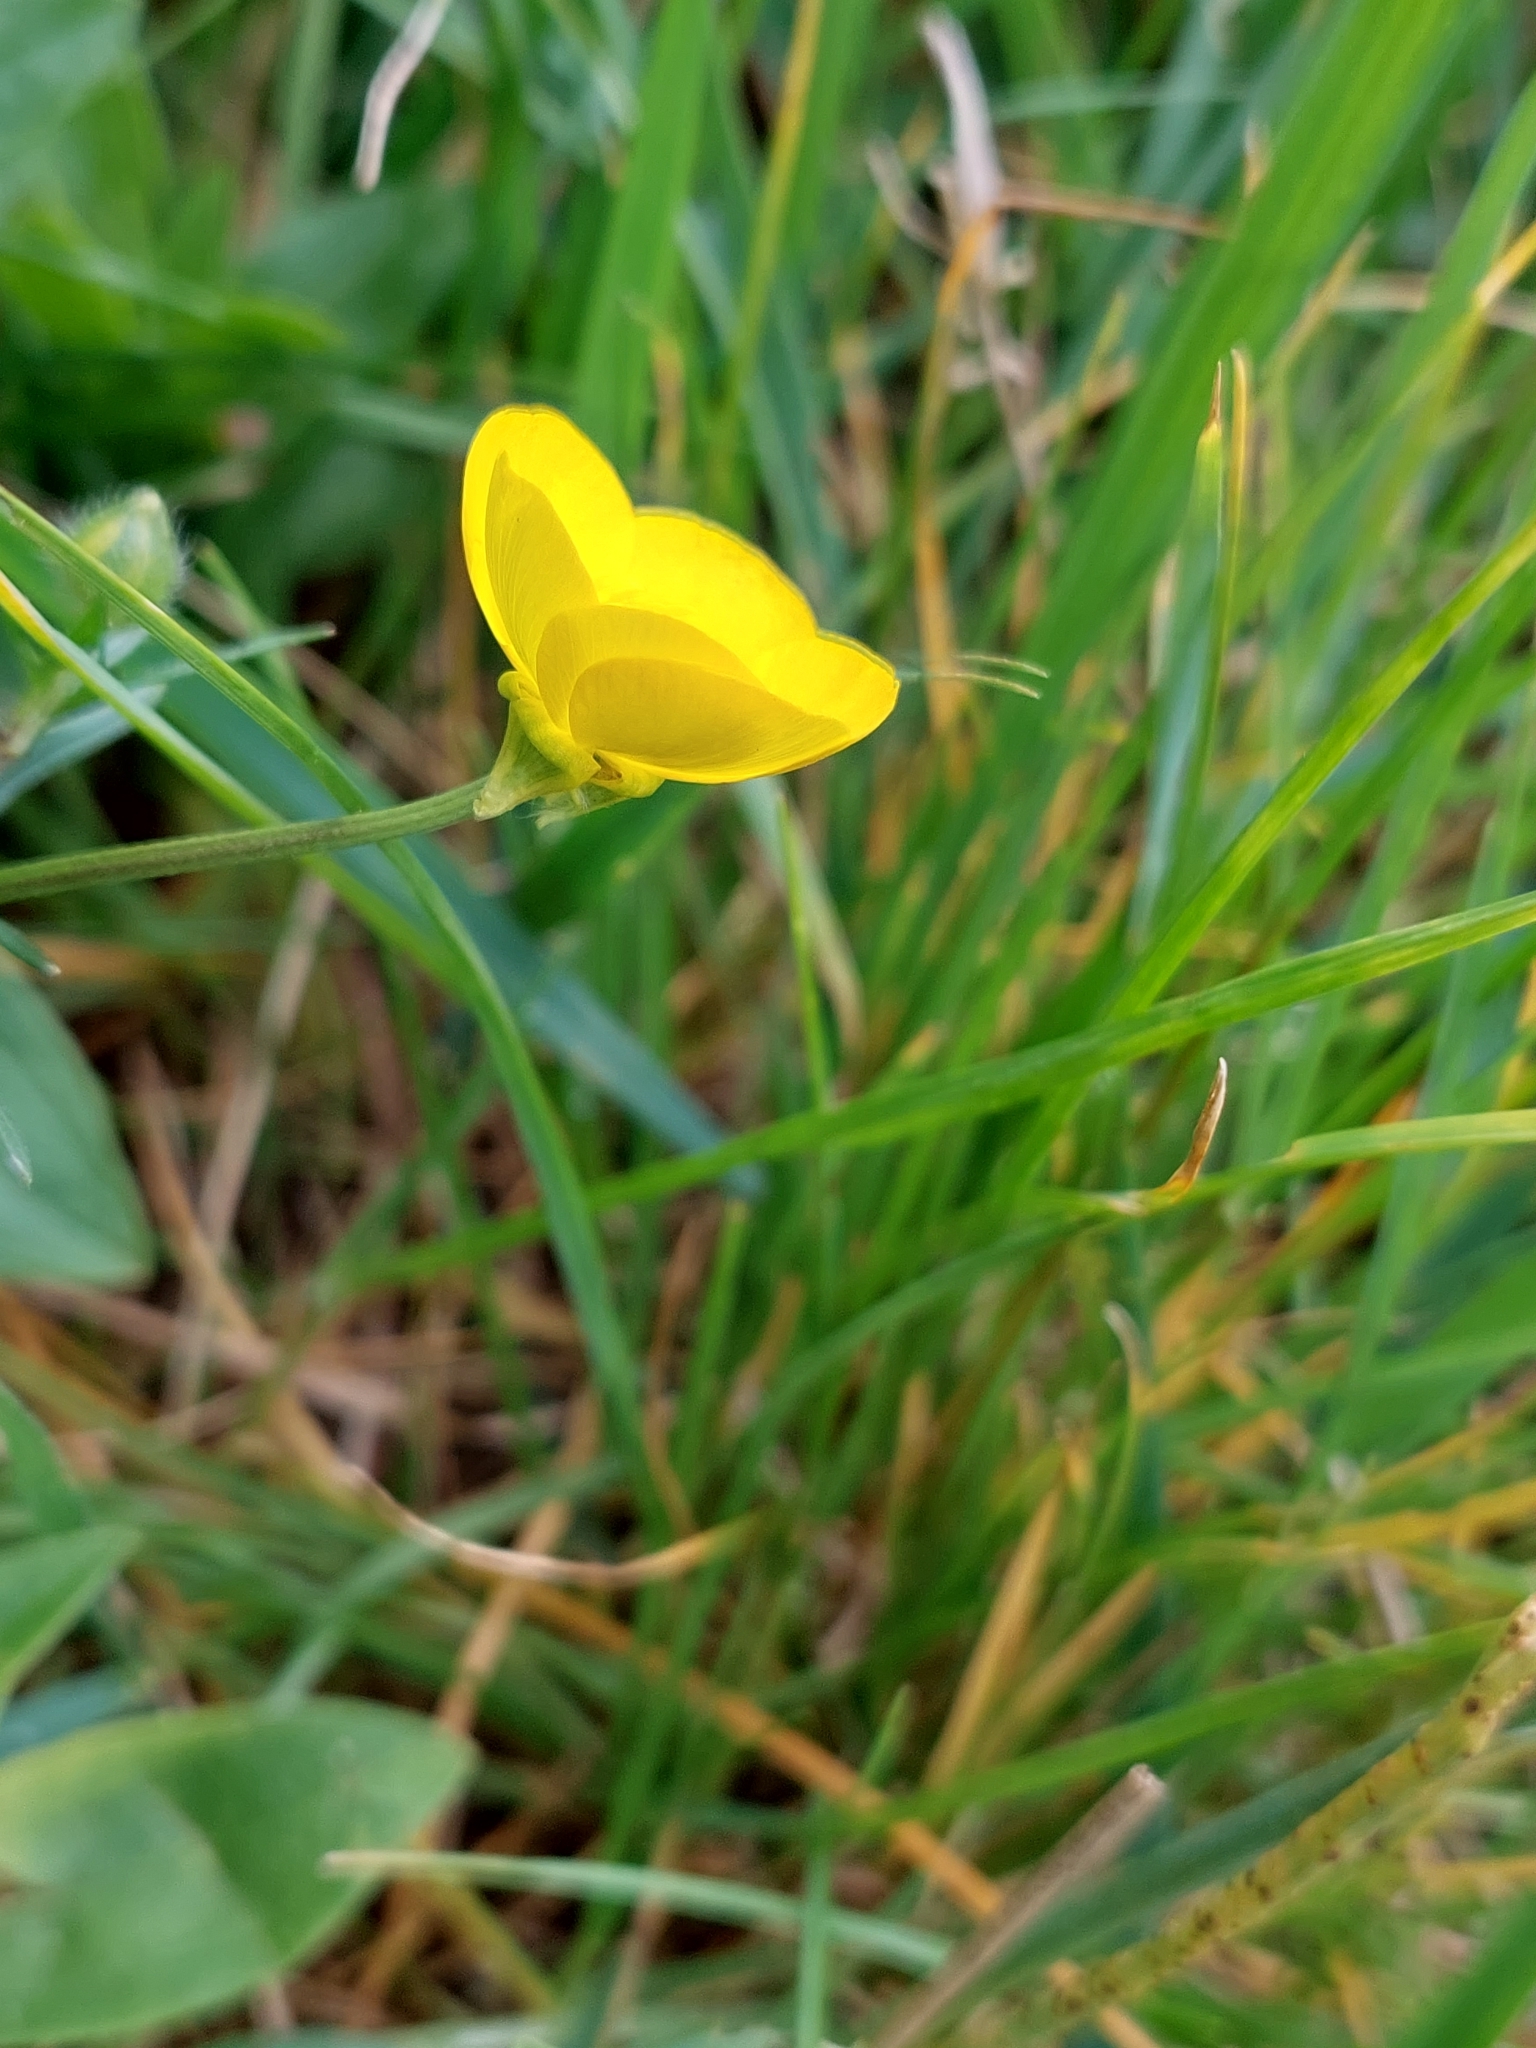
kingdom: Plantae
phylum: Tracheophyta
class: Magnoliopsida
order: Ranunculales
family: Ranunculaceae
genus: Ranunculus
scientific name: Ranunculus bulbosus
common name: Bulbous buttercup
